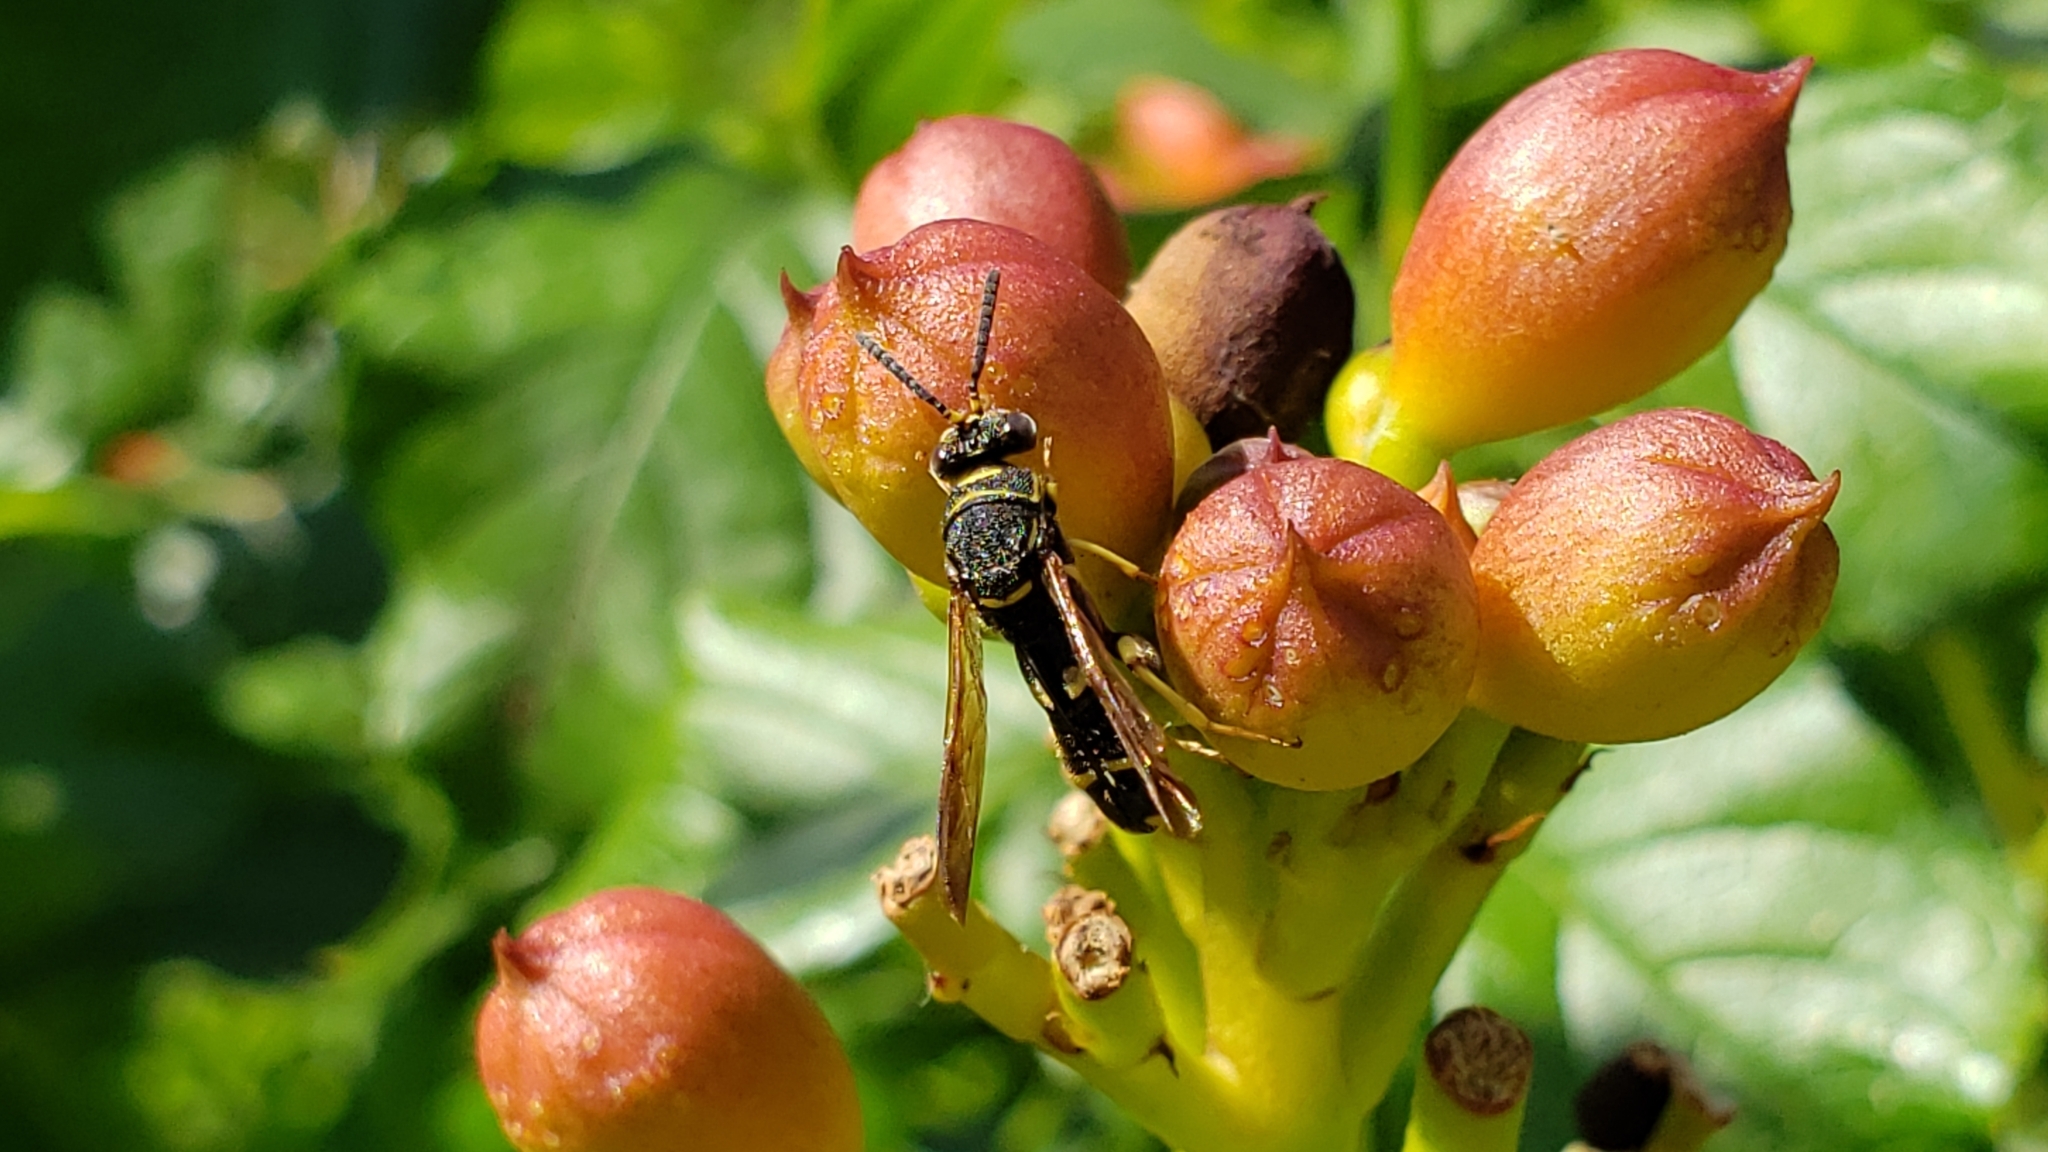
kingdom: Animalia
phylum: Arthropoda
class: Insecta
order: Hymenoptera
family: Leucospidae
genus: Leucospis
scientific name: Leucospis affinis
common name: Wasp
